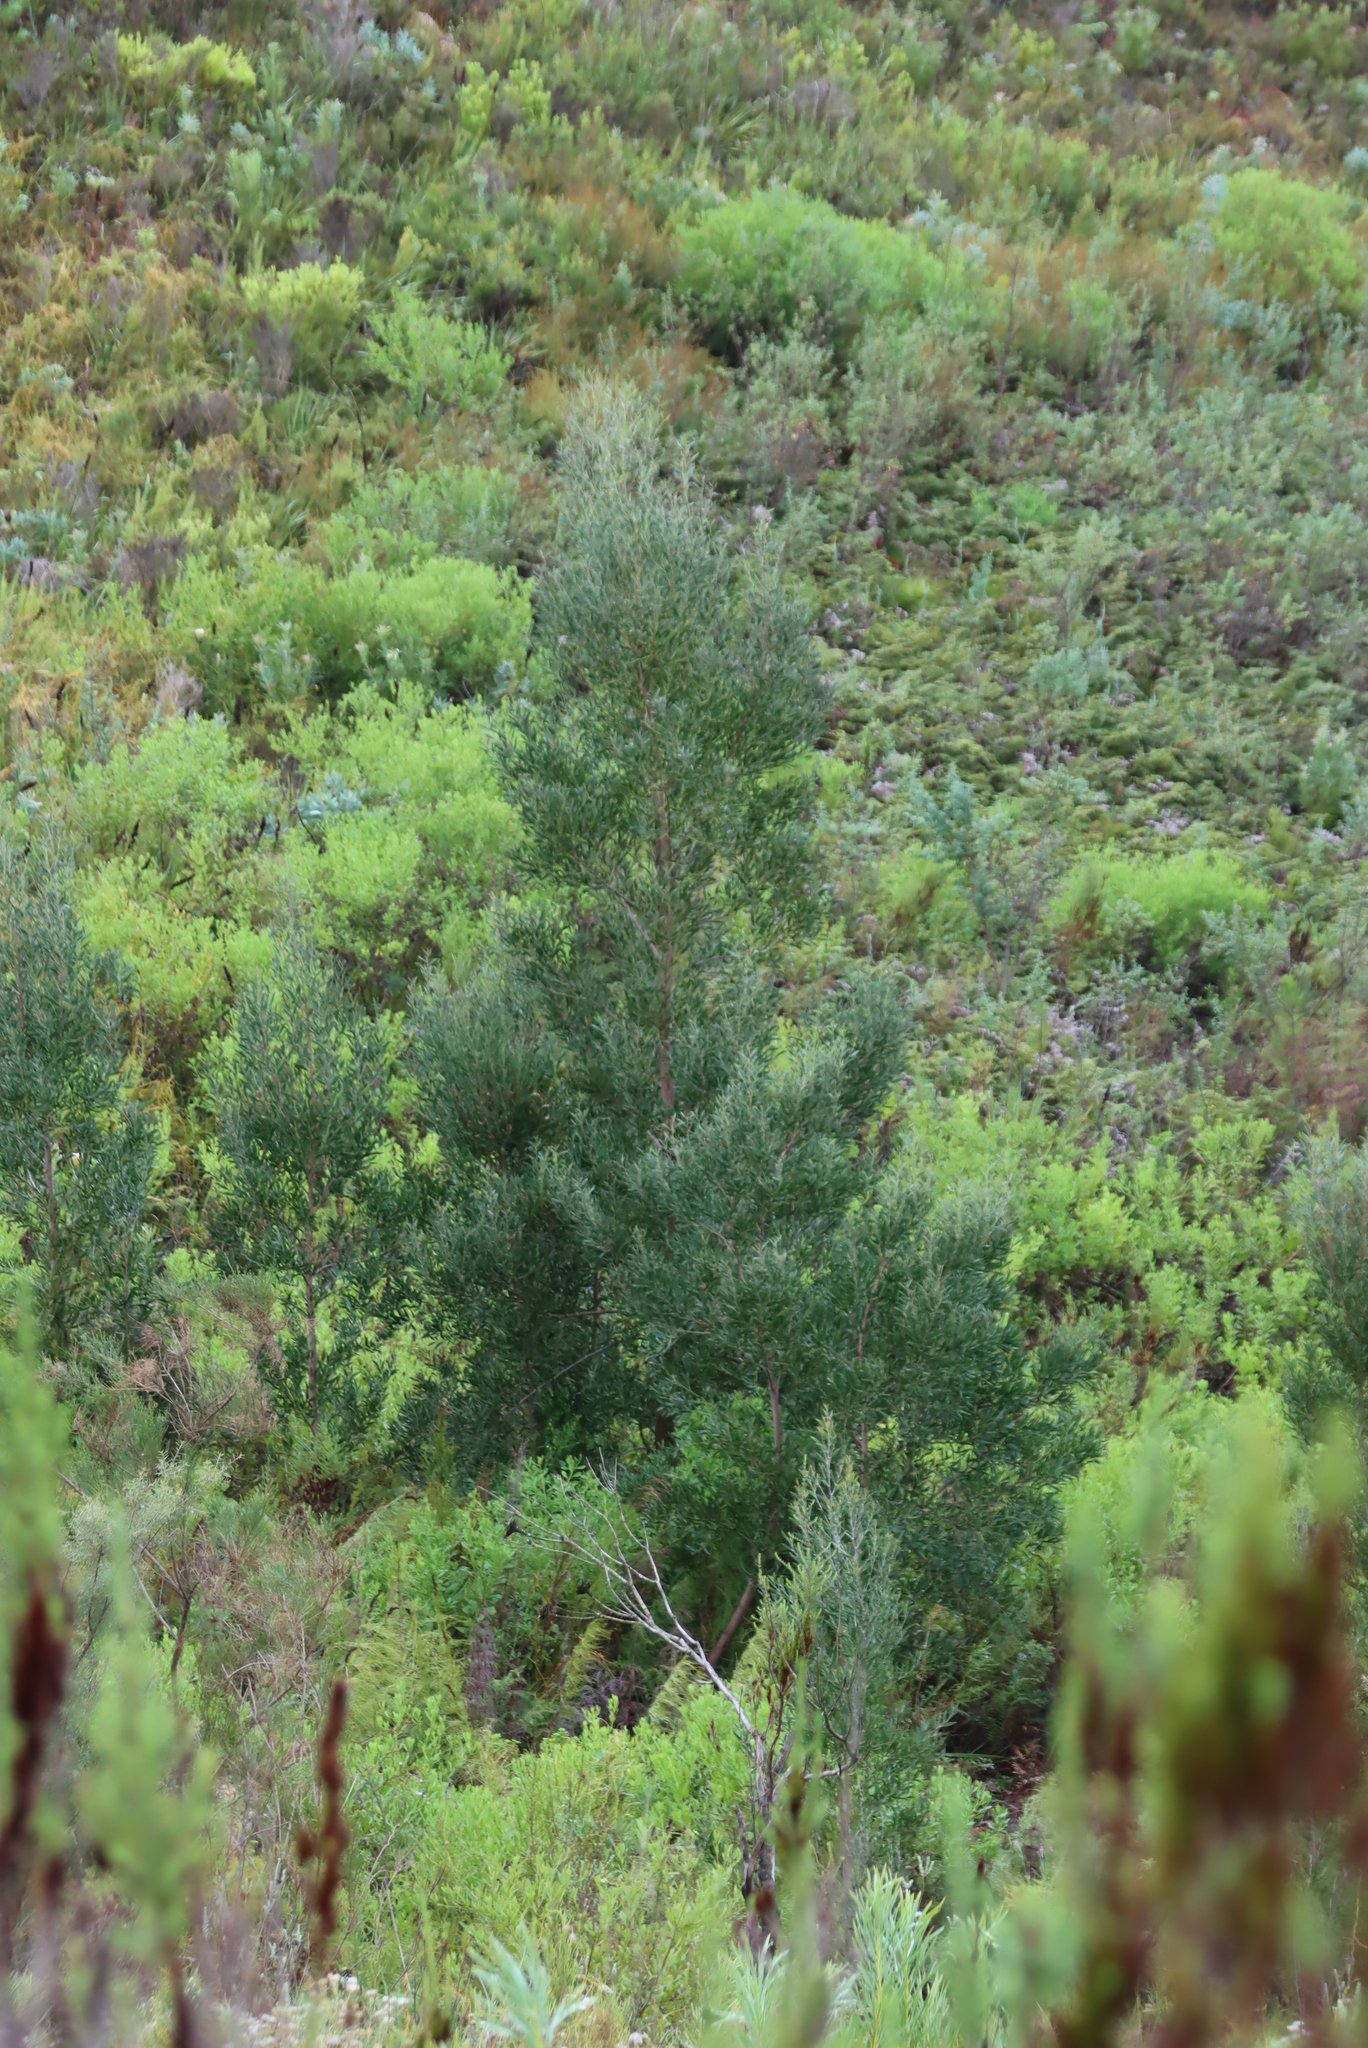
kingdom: Plantae
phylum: Tracheophyta
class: Magnoliopsida
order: Fabales
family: Fabaceae
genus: Acacia
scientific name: Acacia melanoxylon
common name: Blackwood
